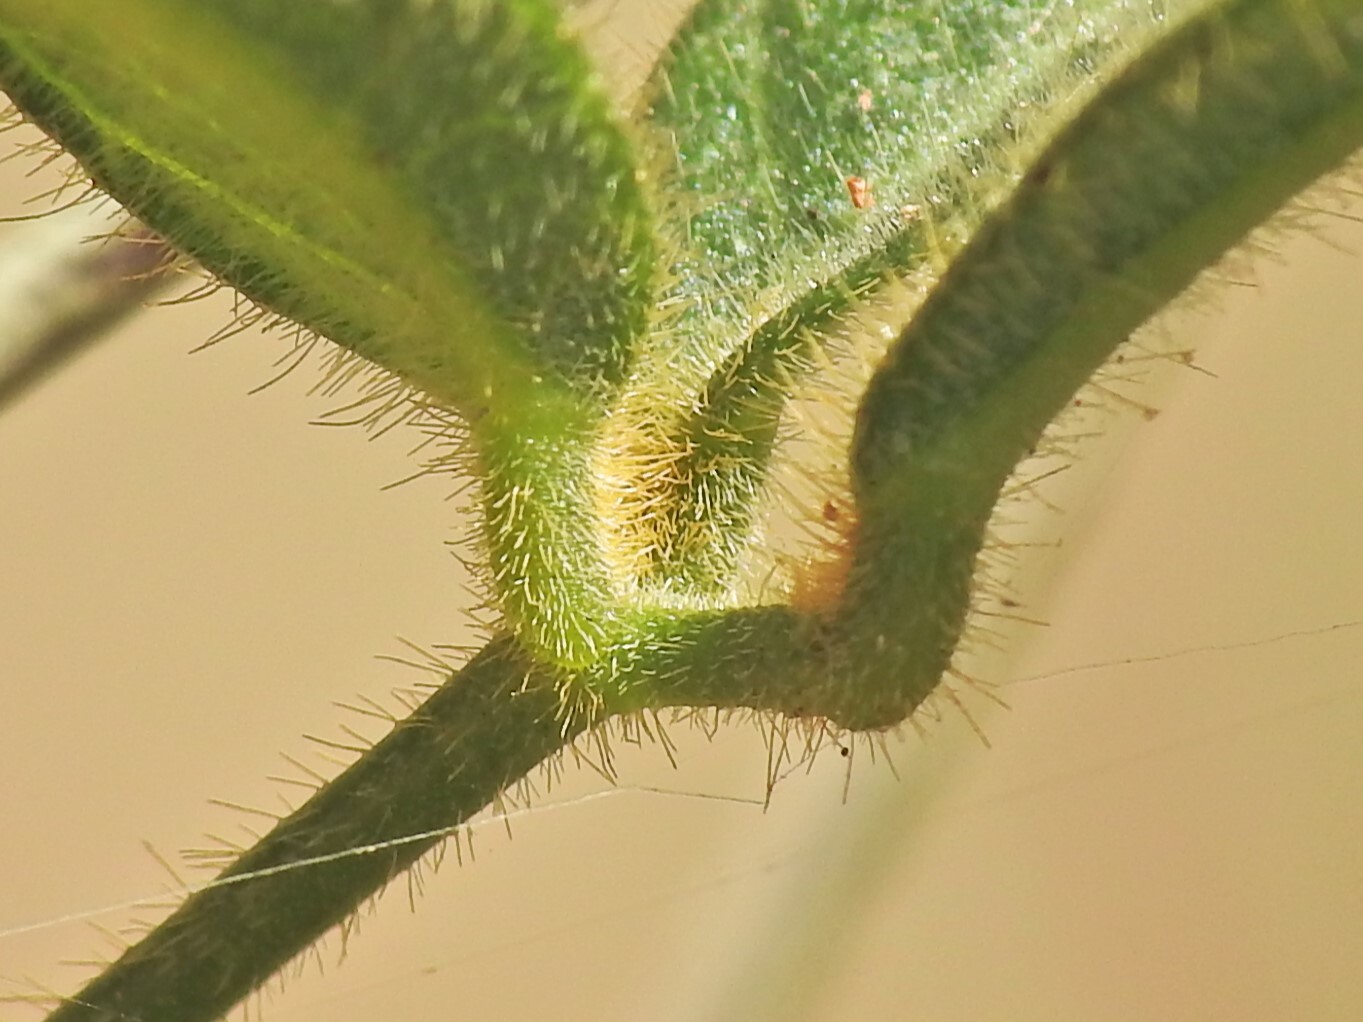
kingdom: Plantae
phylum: Tracheophyta
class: Magnoliopsida
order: Fabales
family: Fabaceae
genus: Glycine
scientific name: Glycine argyrea
